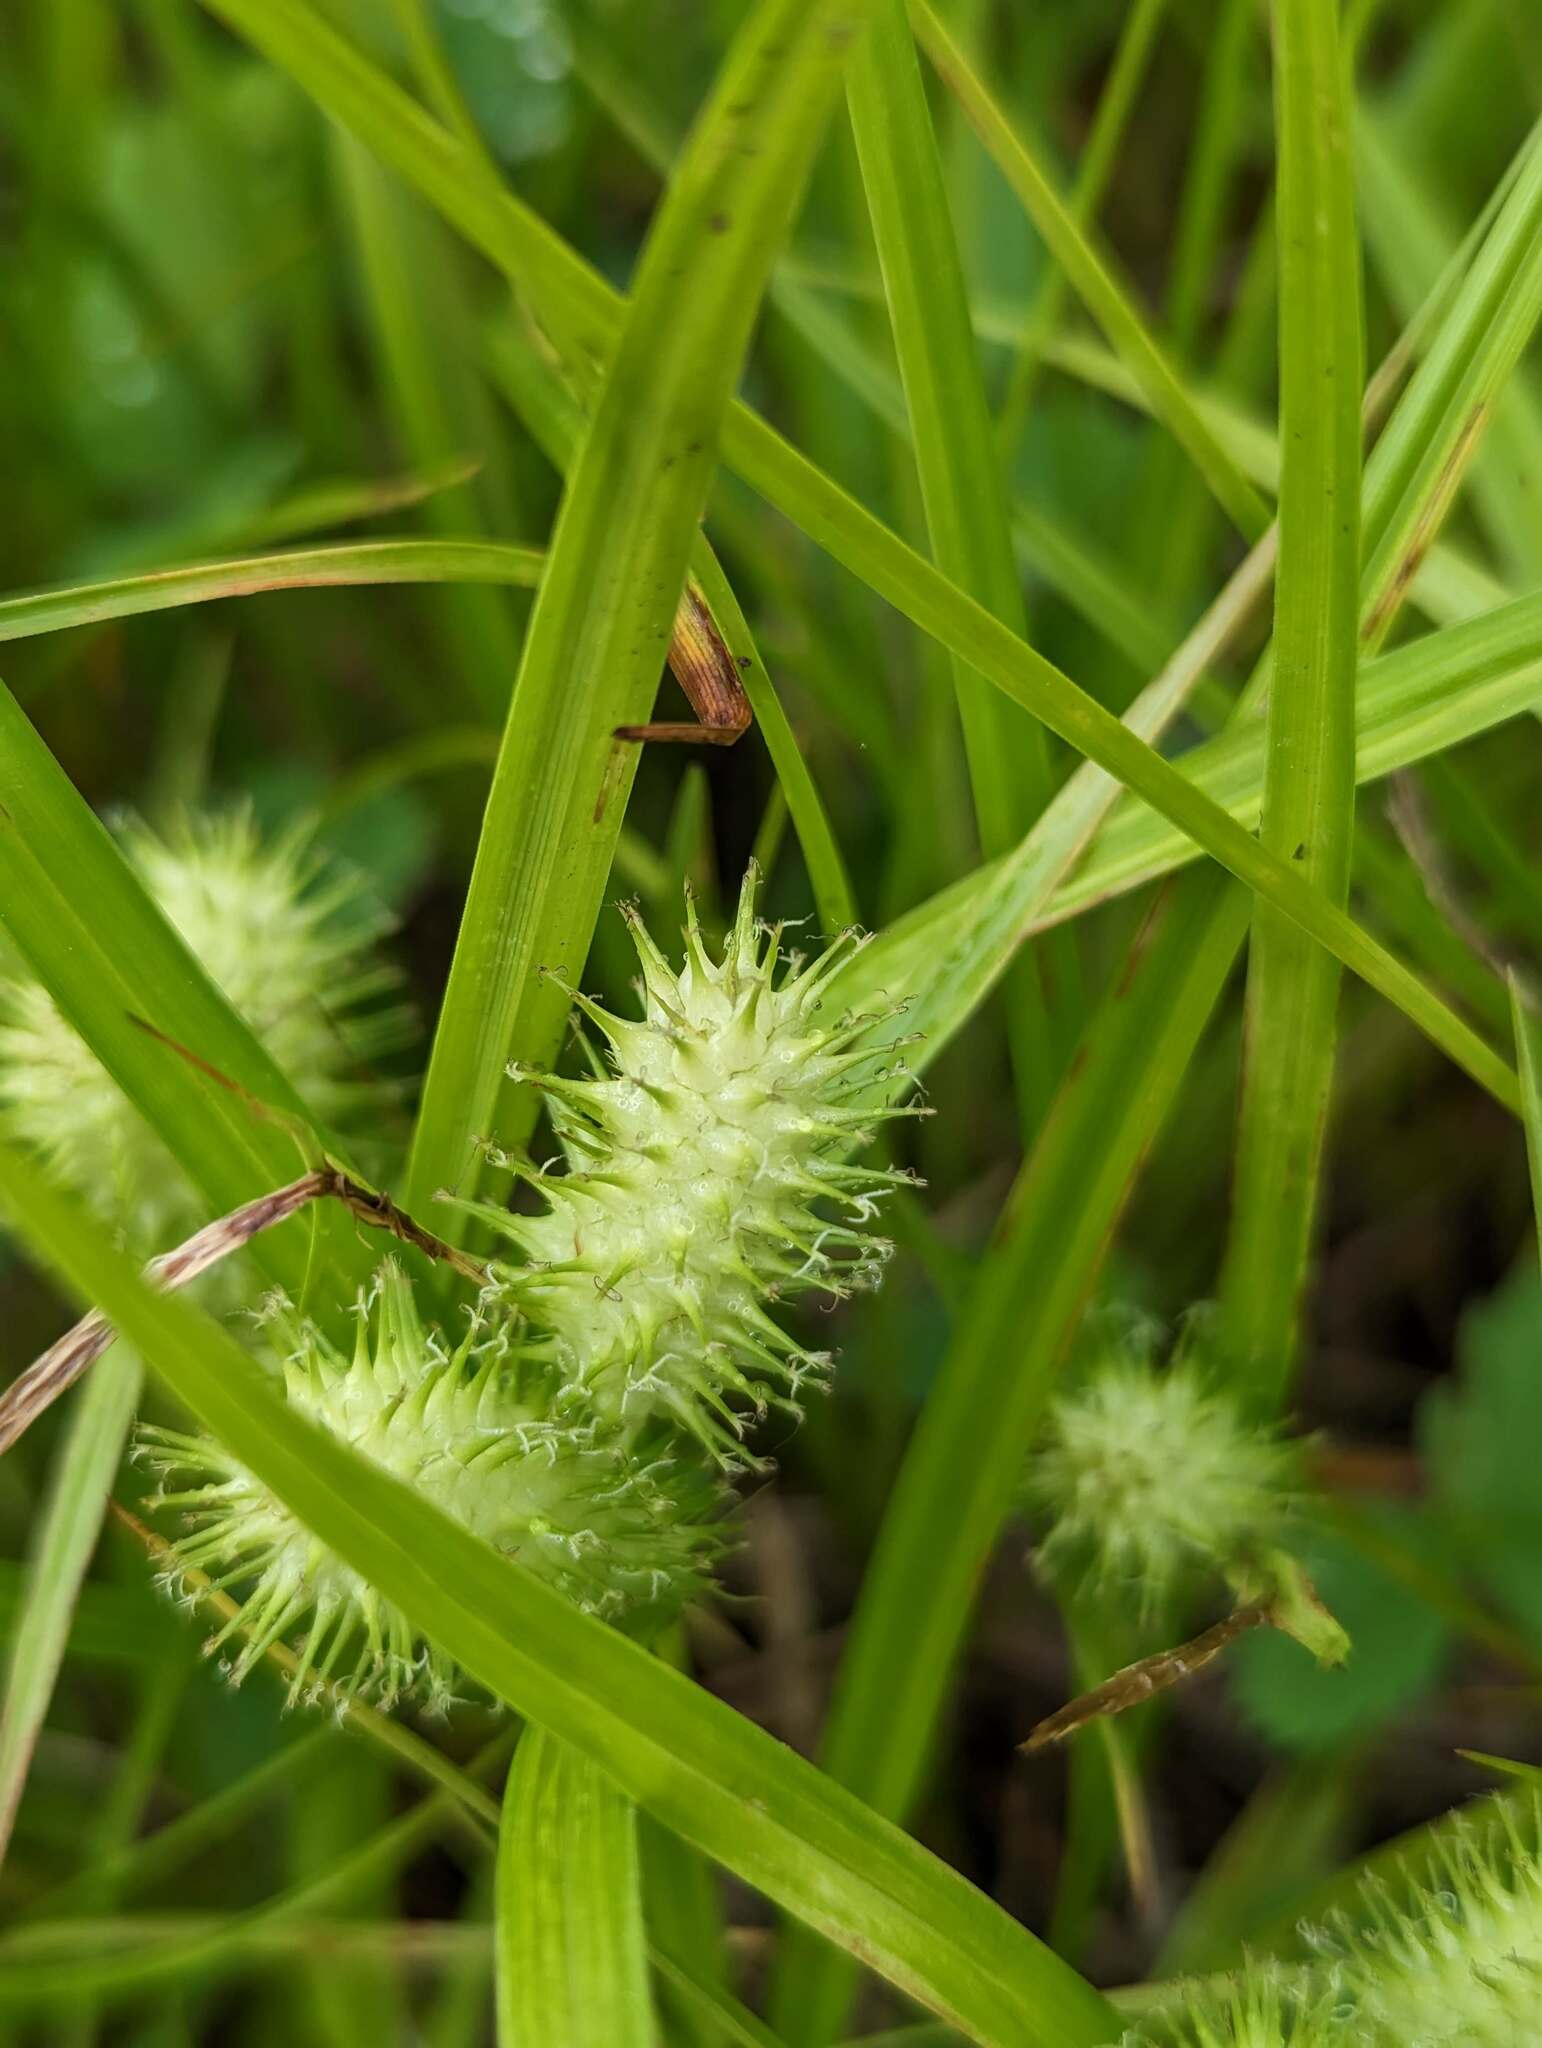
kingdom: Plantae
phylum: Tracheophyta
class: Liliopsida
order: Poales
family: Cyperaceae
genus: Carex
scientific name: Carex lurida
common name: Sallow sedge
